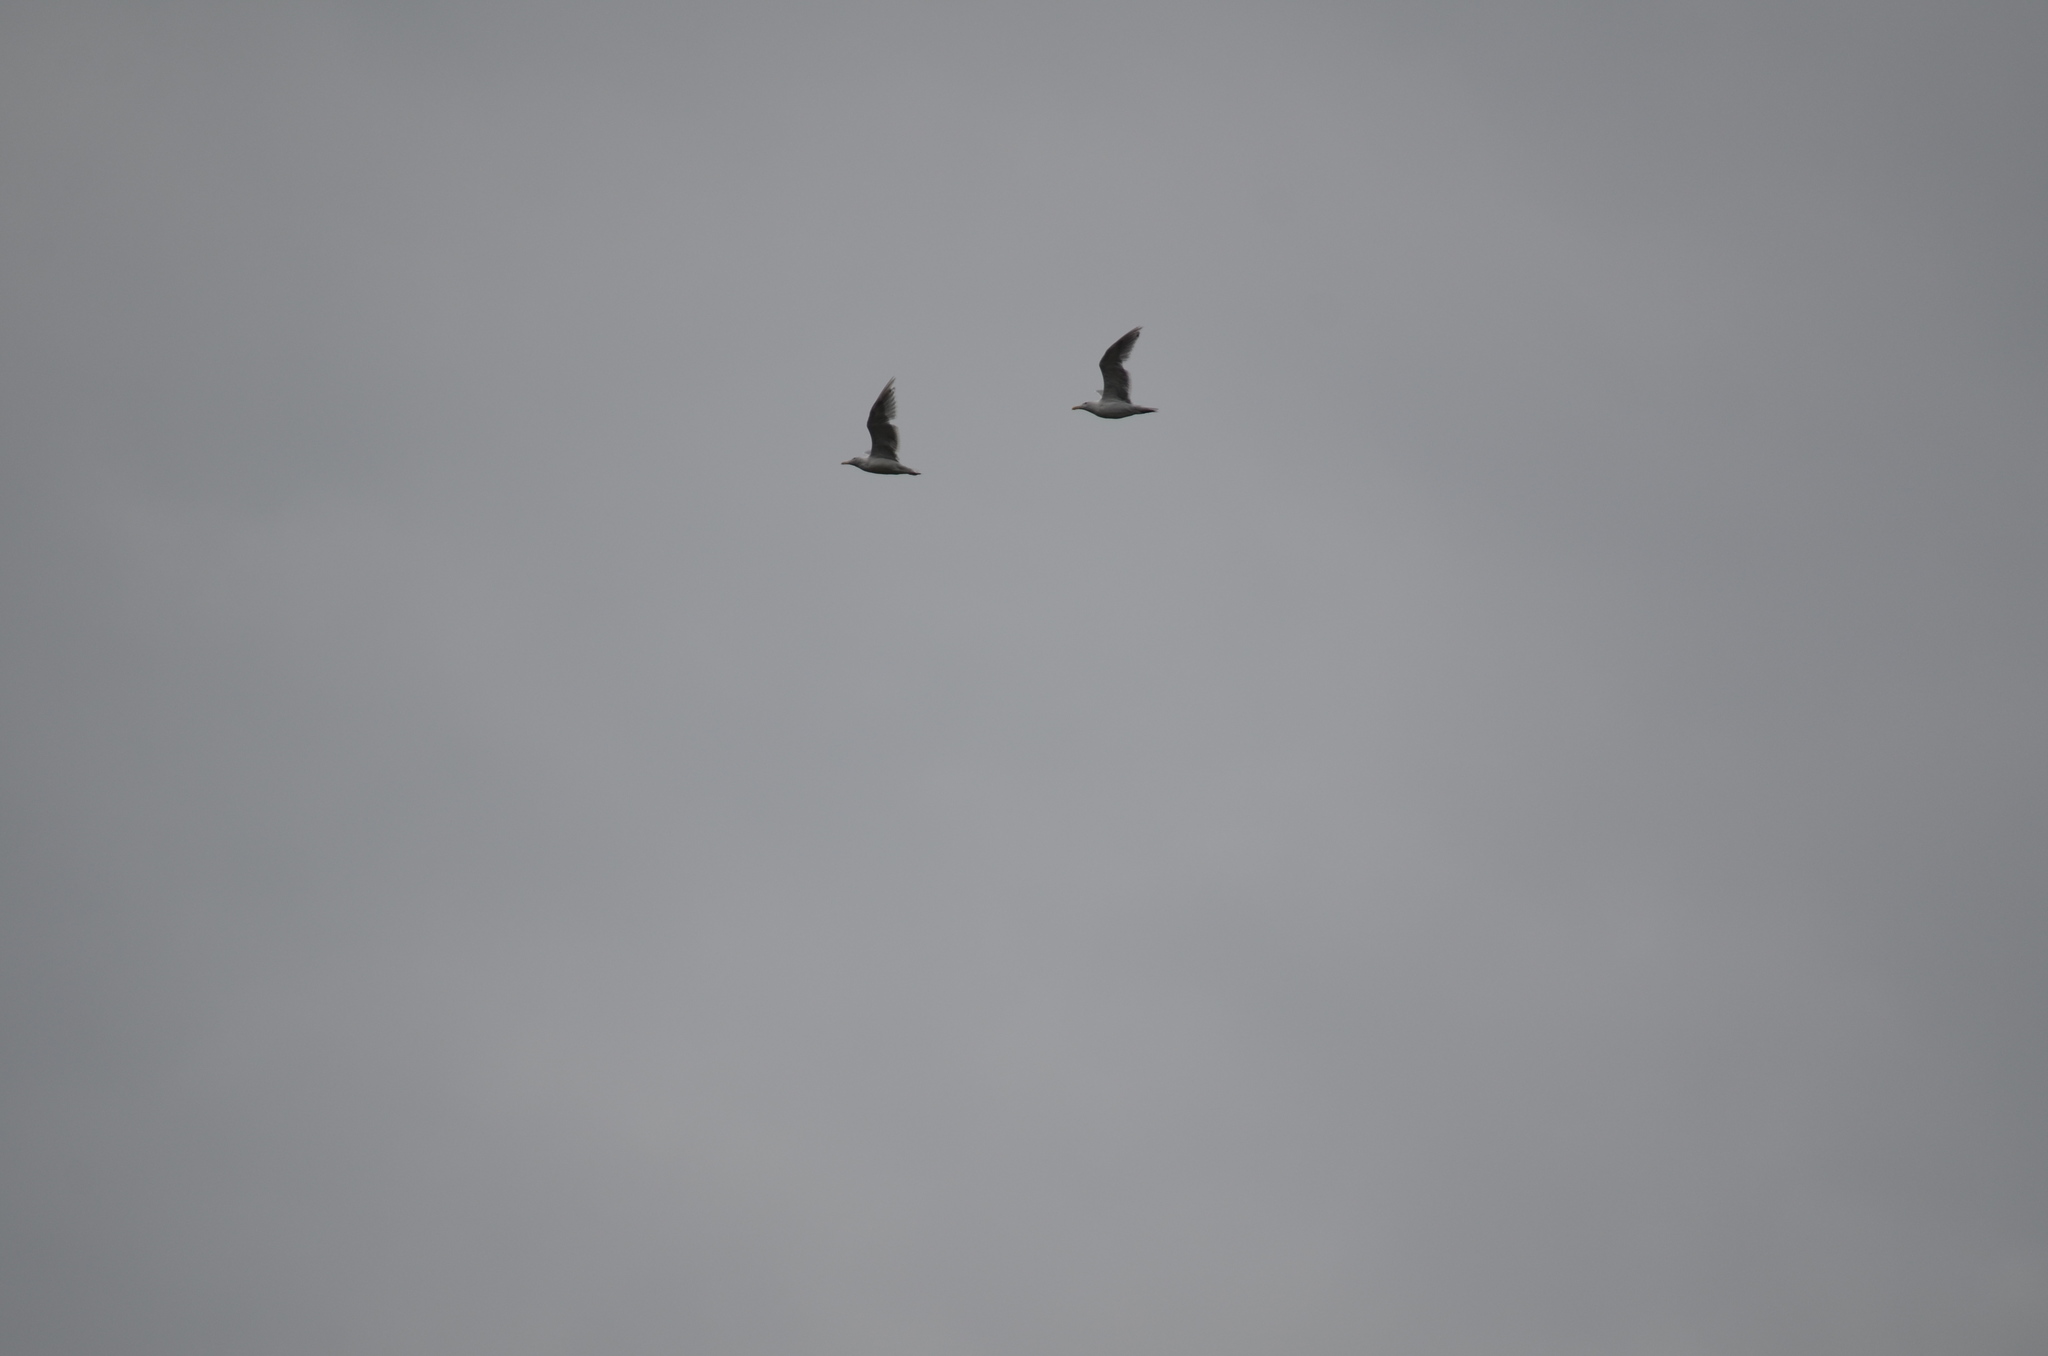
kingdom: Animalia
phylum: Chordata
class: Aves
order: Charadriiformes
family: Laridae
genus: Larus
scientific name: Larus glaucescens
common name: Glaucous-winged gull
